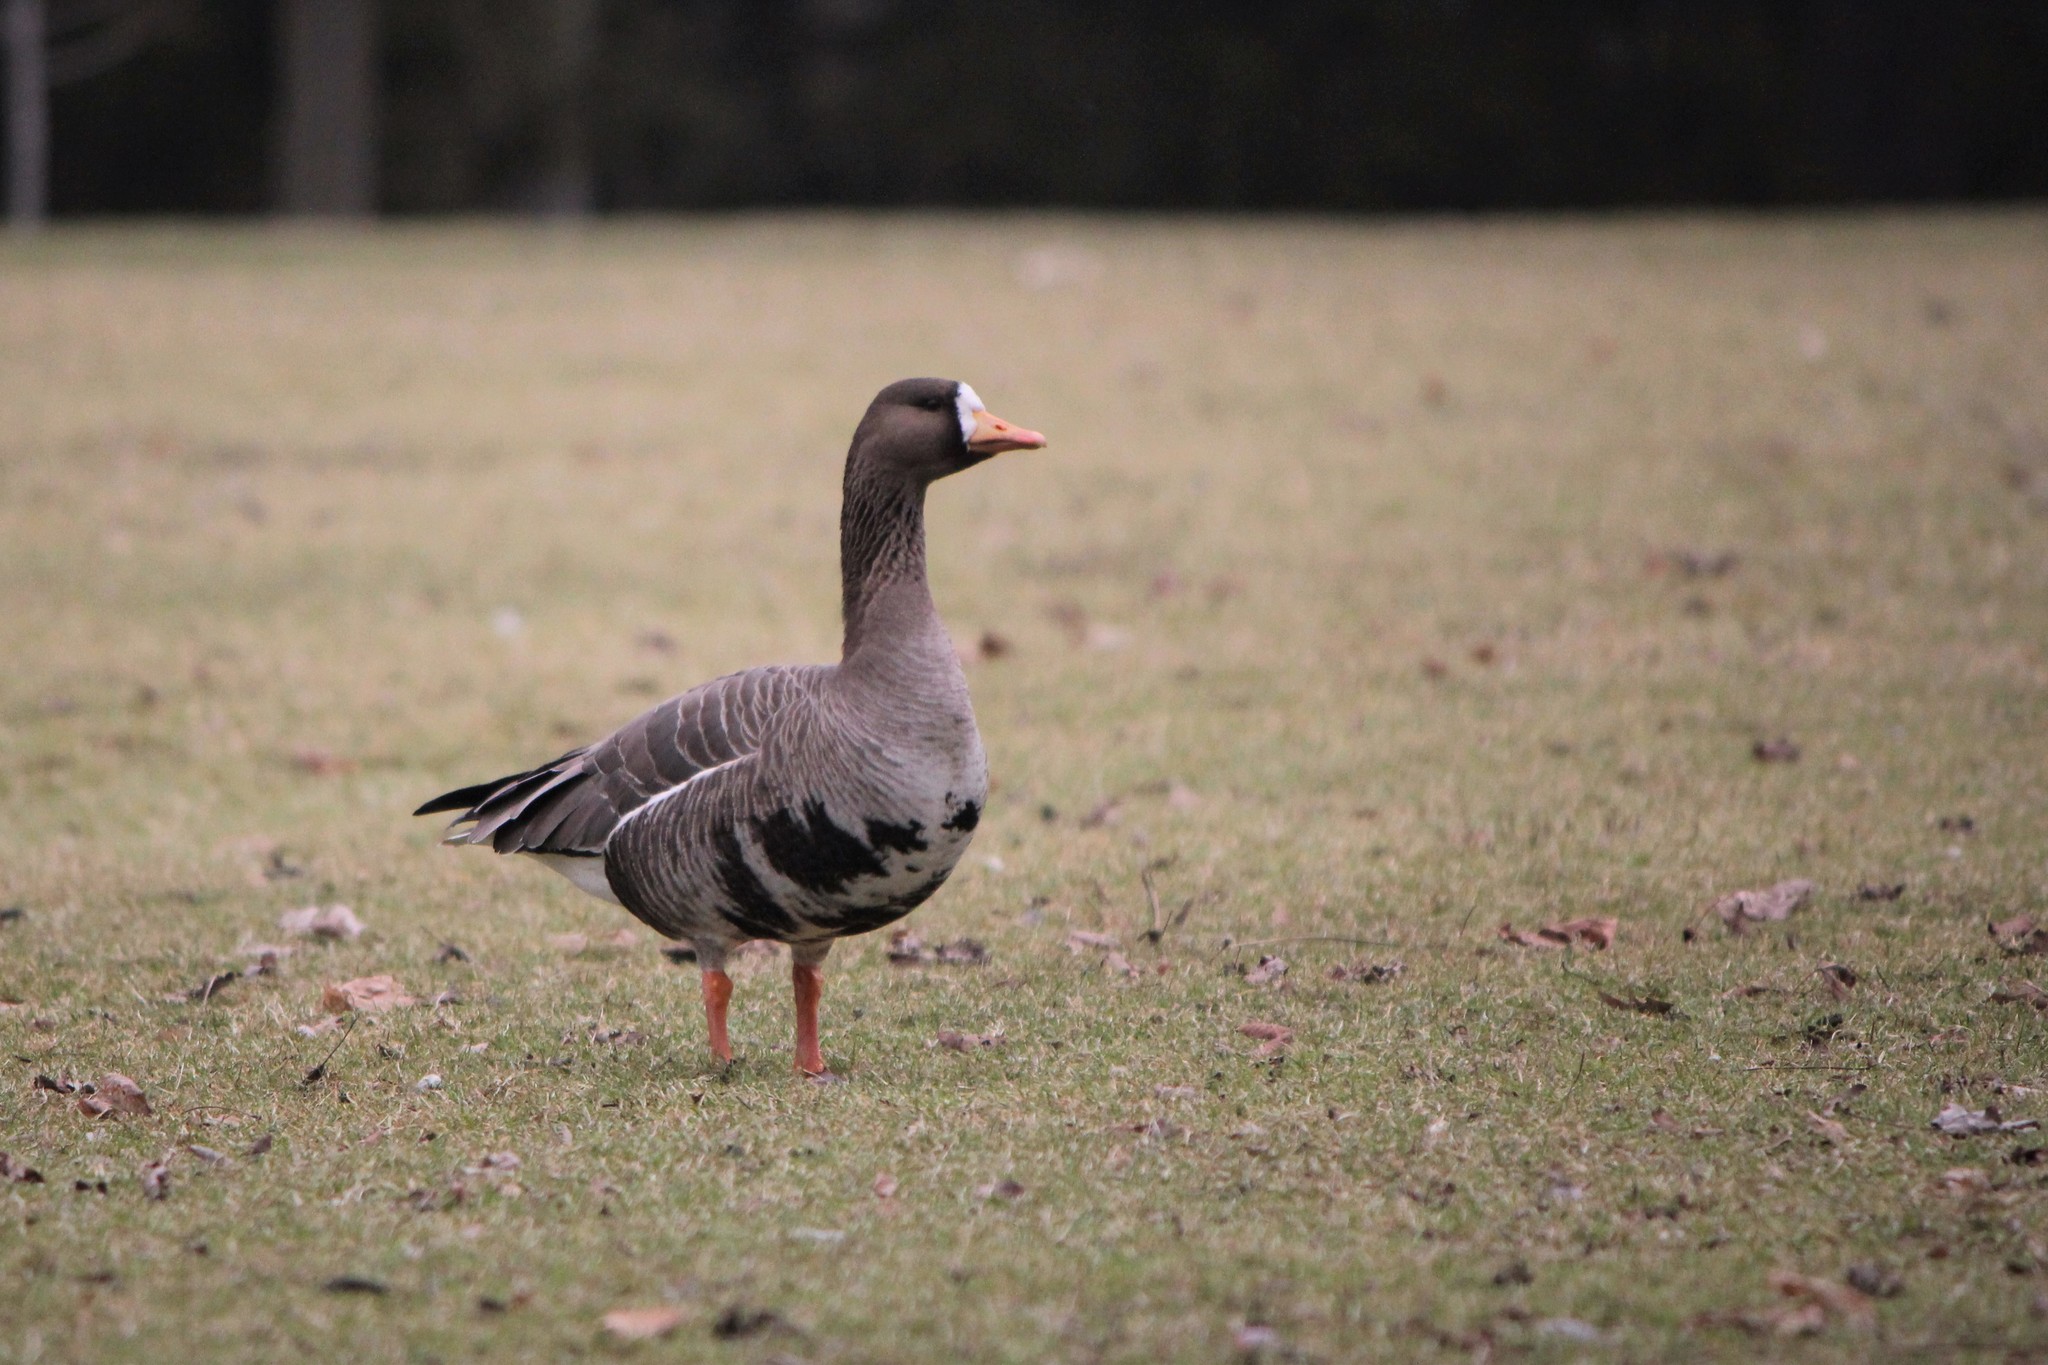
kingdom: Animalia
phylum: Chordata
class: Aves
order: Anseriformes
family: Anatidae
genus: Anser
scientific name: Anser albifrons
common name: Greater white-fronted goose
